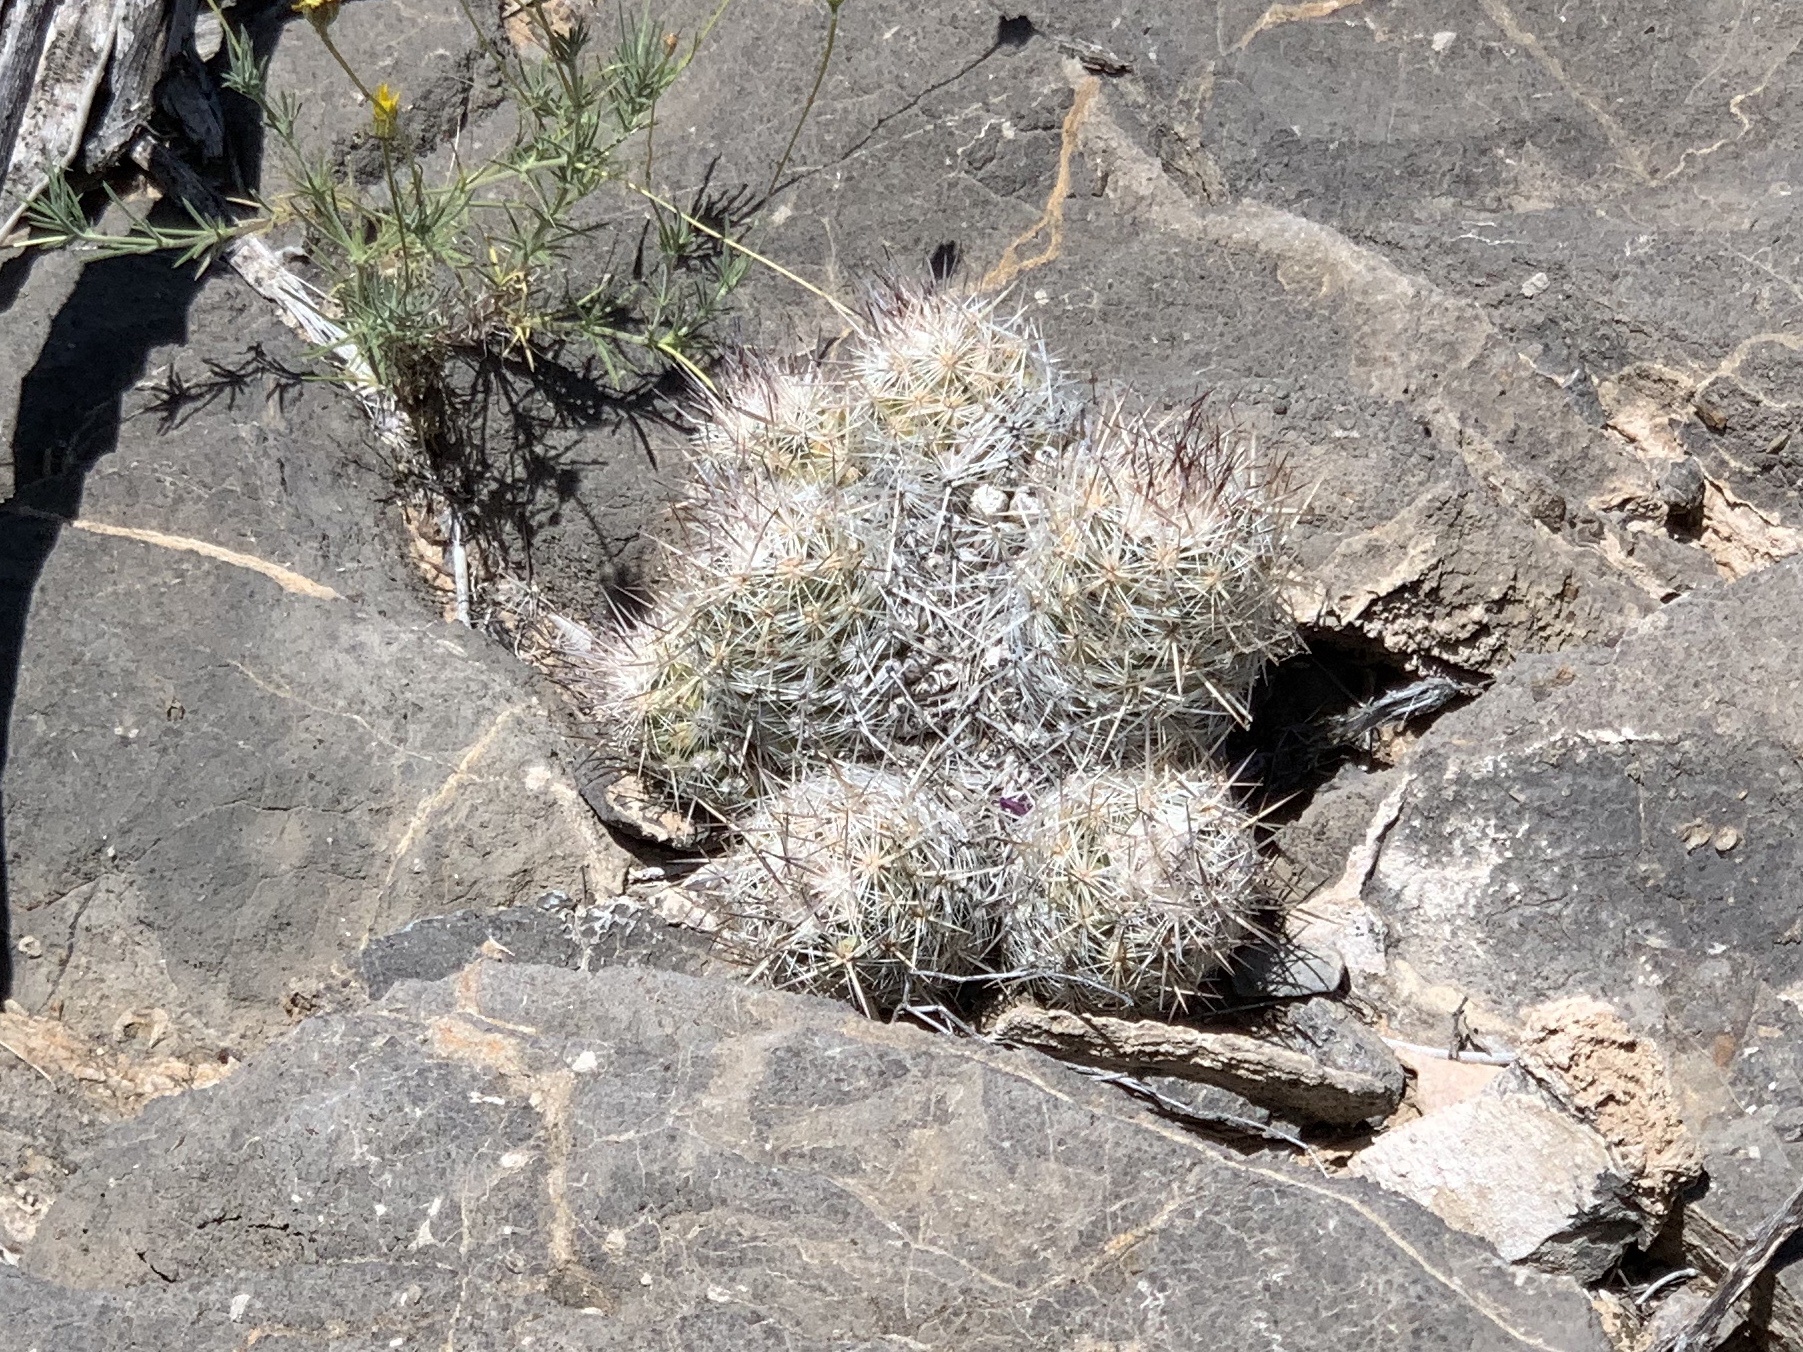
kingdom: Plantae
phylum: Tracheophyta
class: Magnoliopsida
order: Caryophyllales
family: Cactaceae
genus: Pelecyphora
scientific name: Pelecyphora tuberculosa
